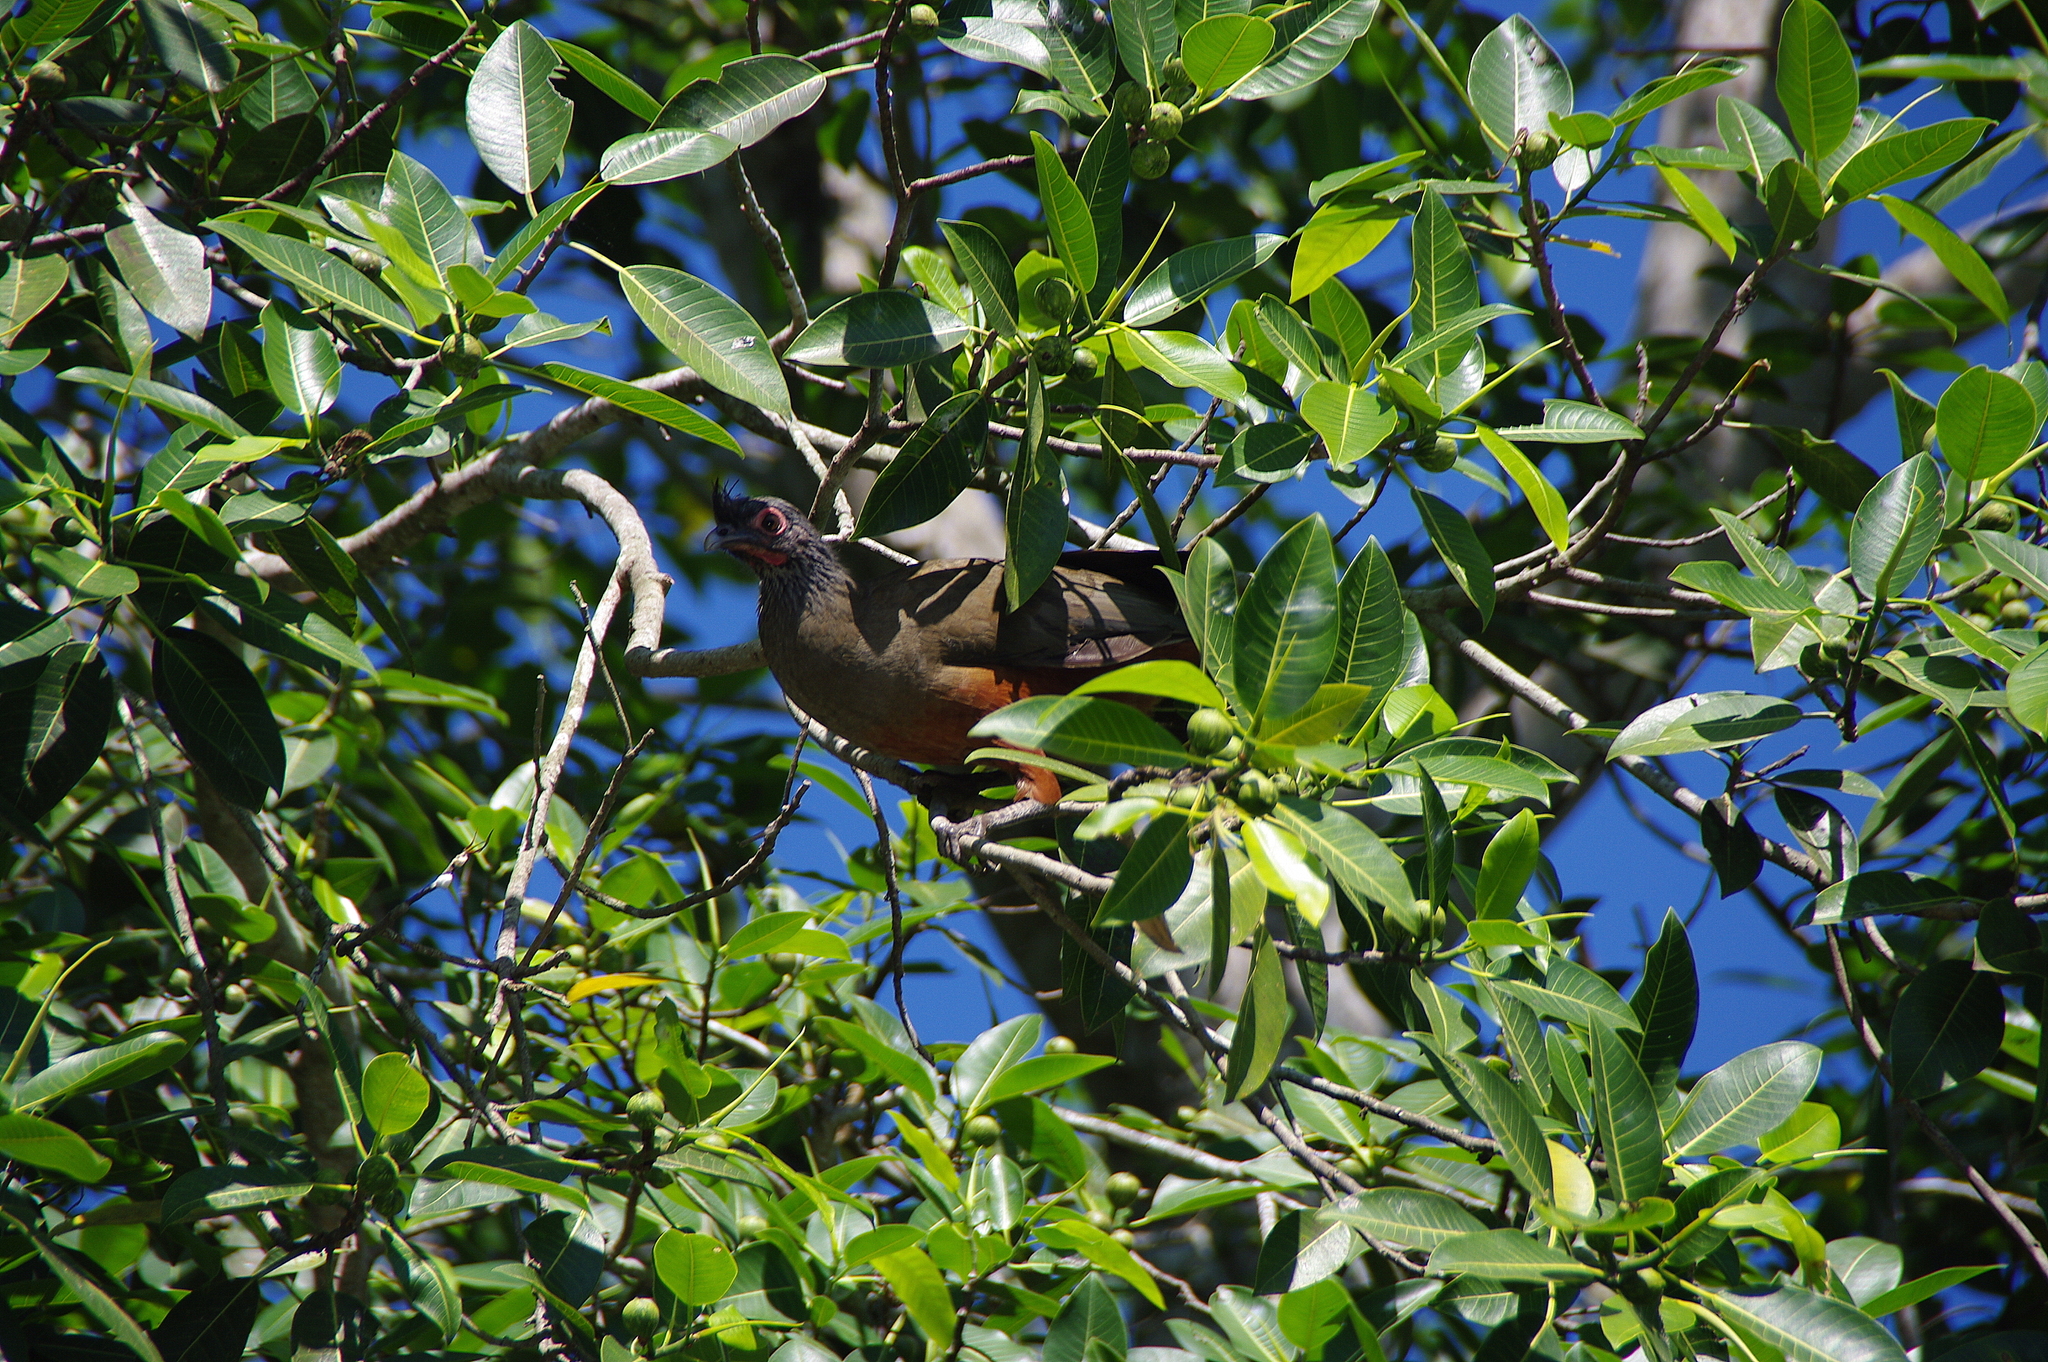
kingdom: Animalia
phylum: Chordata
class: Aves
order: Galliformes
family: Cracidae
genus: Ortalis
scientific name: Ortalis wagleri
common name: Rufous-bellied chachalaca
